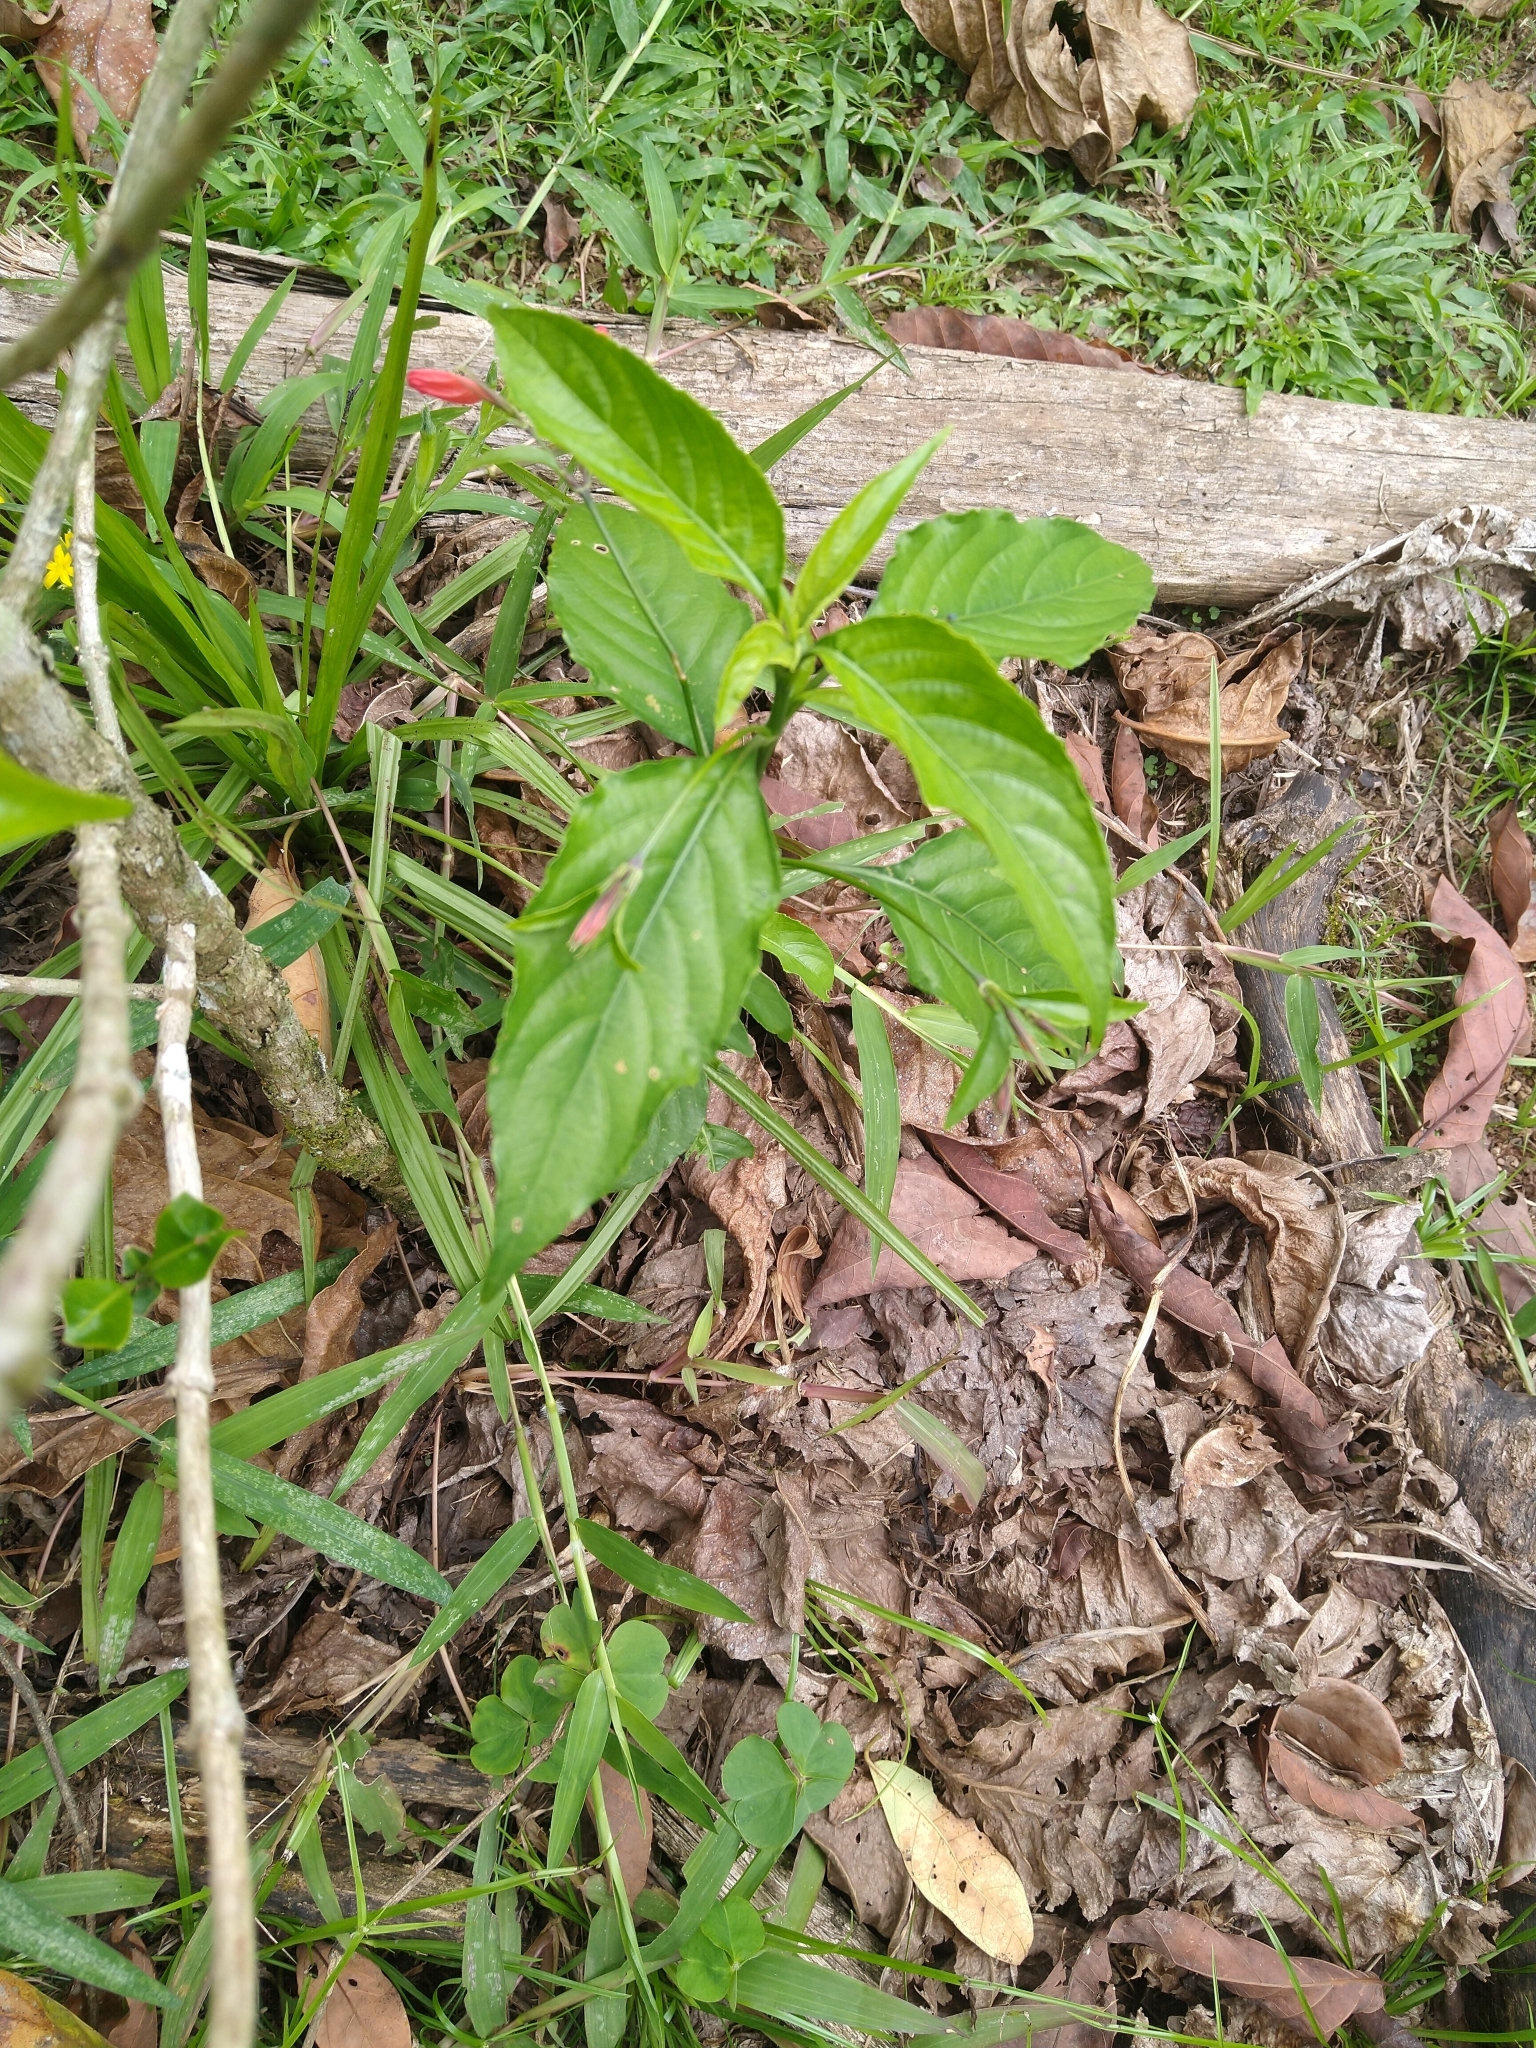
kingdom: Plantae
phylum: Tracheophyta
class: Magnoliopsida
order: Lamiales
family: Acanthaceae
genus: Ruellia
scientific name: Ruellia brevifolia
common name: Tropical wild petunia
